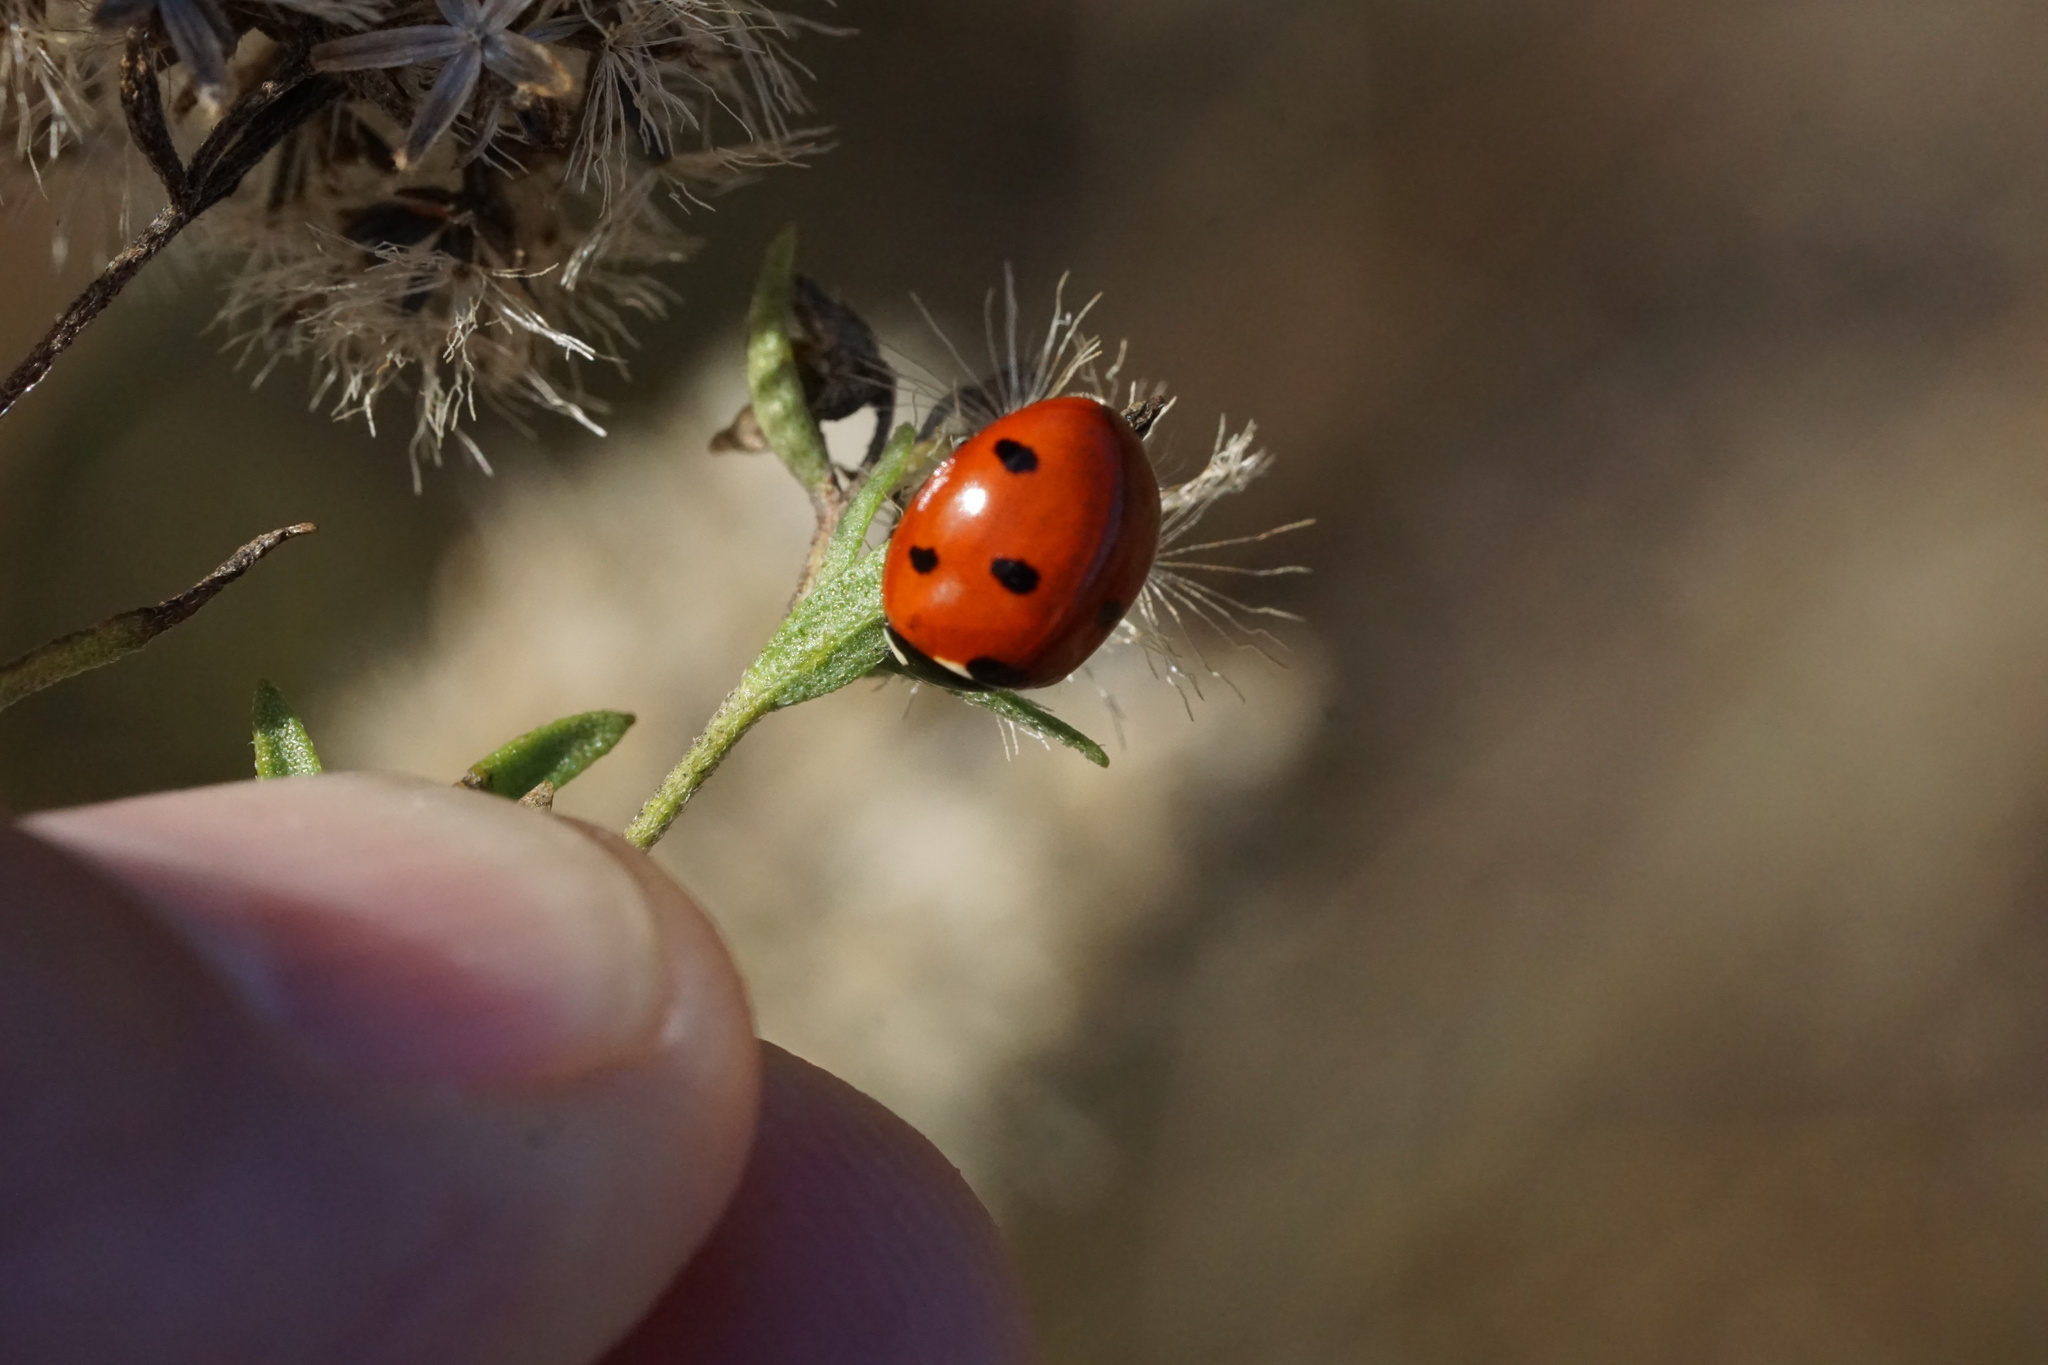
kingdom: Animalia
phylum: Arthropoda
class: Insecta
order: Coleoptera
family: Coccinellidae
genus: Coccinella
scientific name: Coccinella septempunctata
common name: Sevenspotted lady beetle
